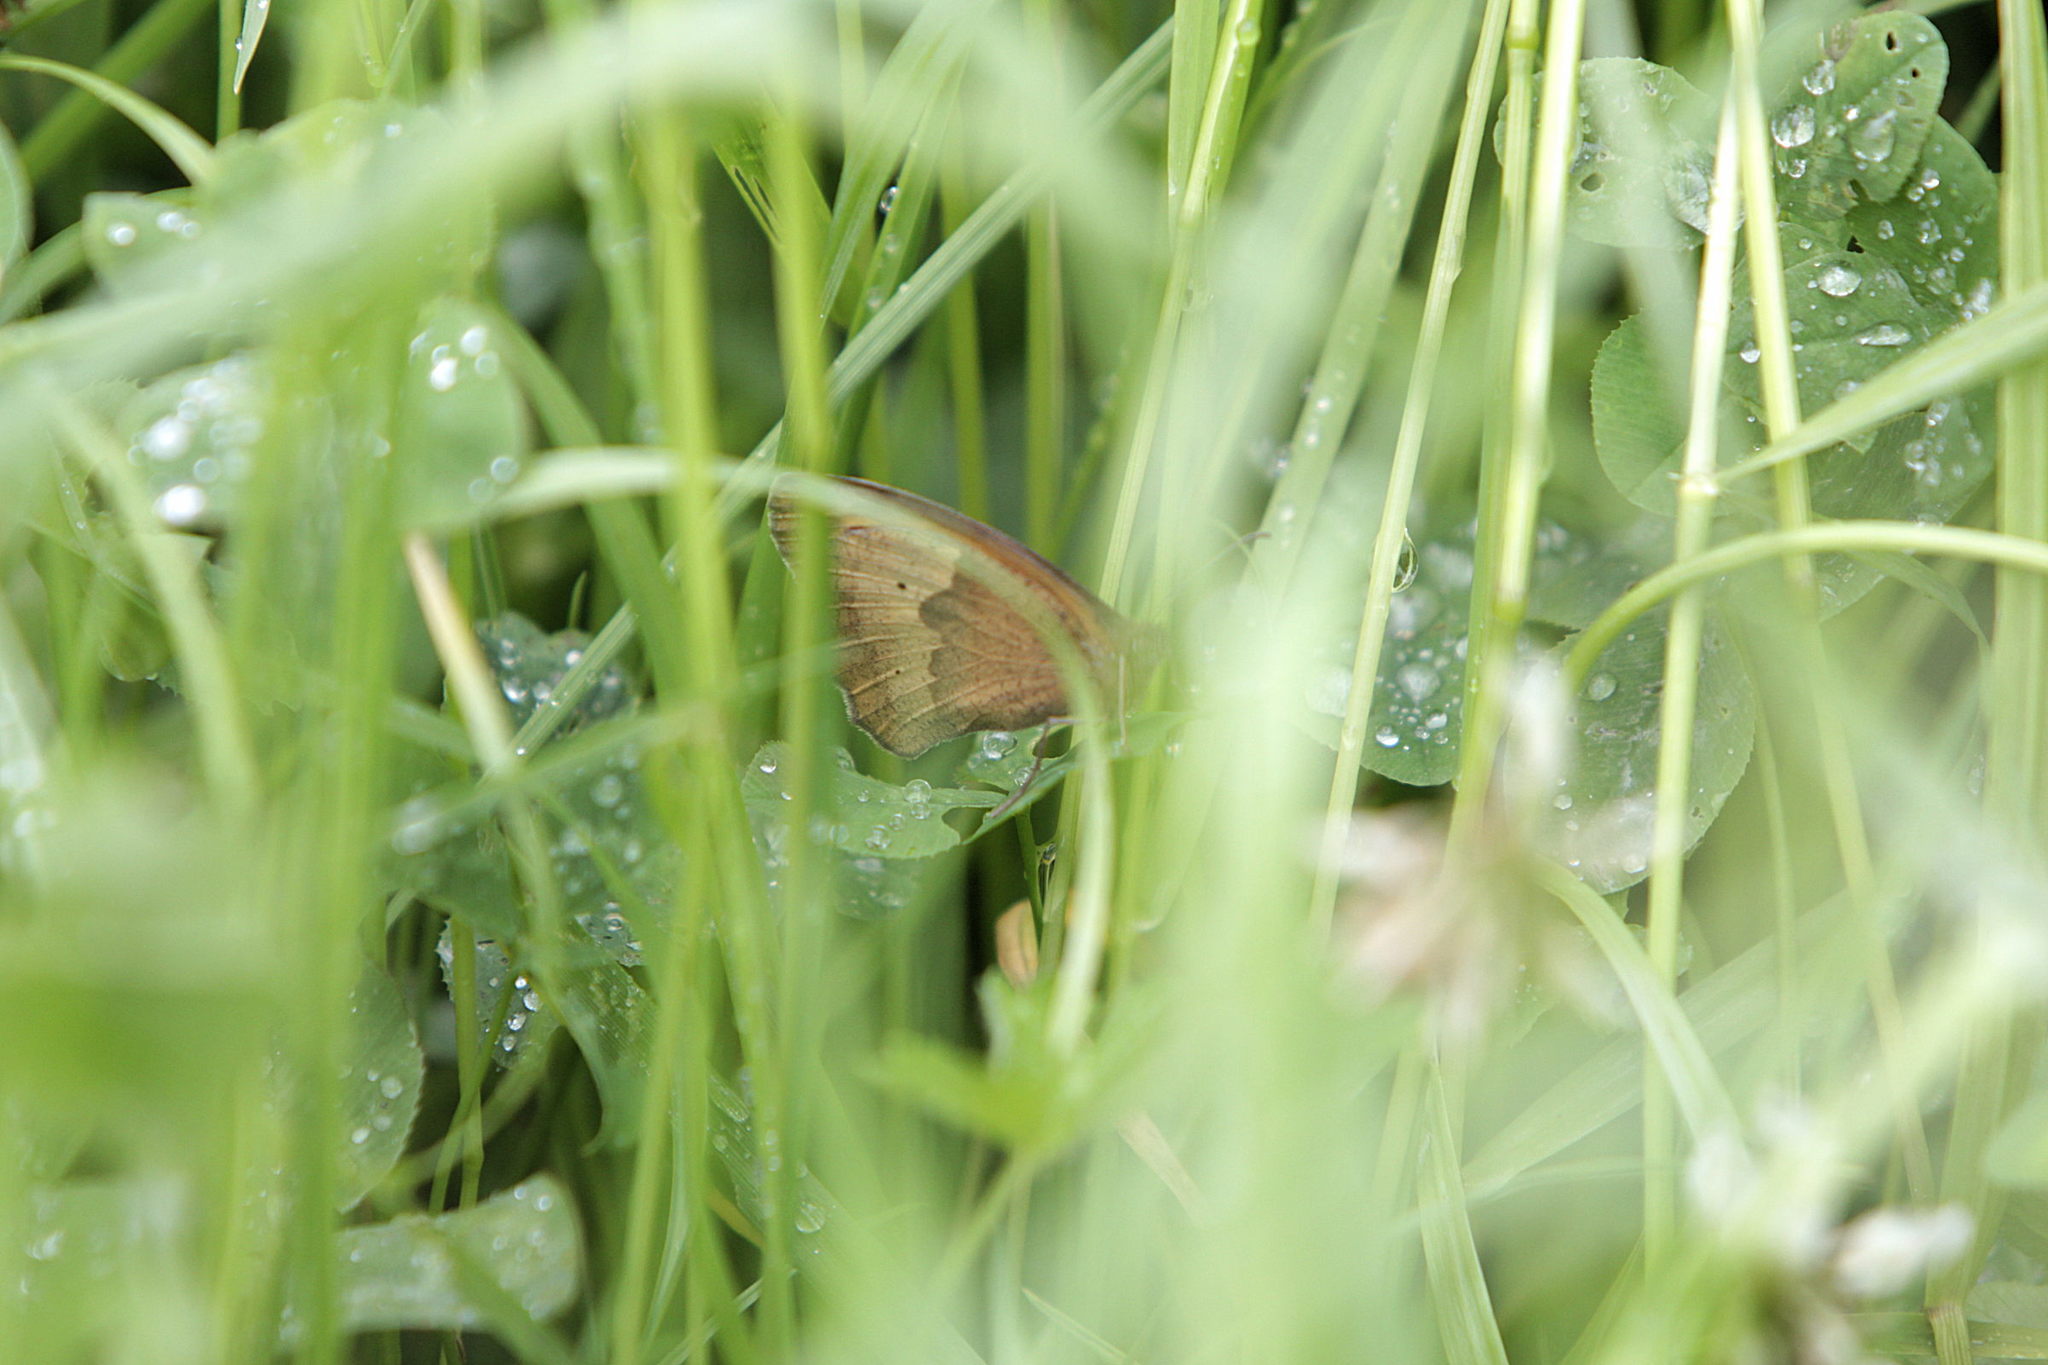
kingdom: Animalia
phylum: Arthropoda
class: Insecta
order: Lepidoptera
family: Nymphalidae
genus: Maniola
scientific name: Maniola jurtina
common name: Meadow brown
